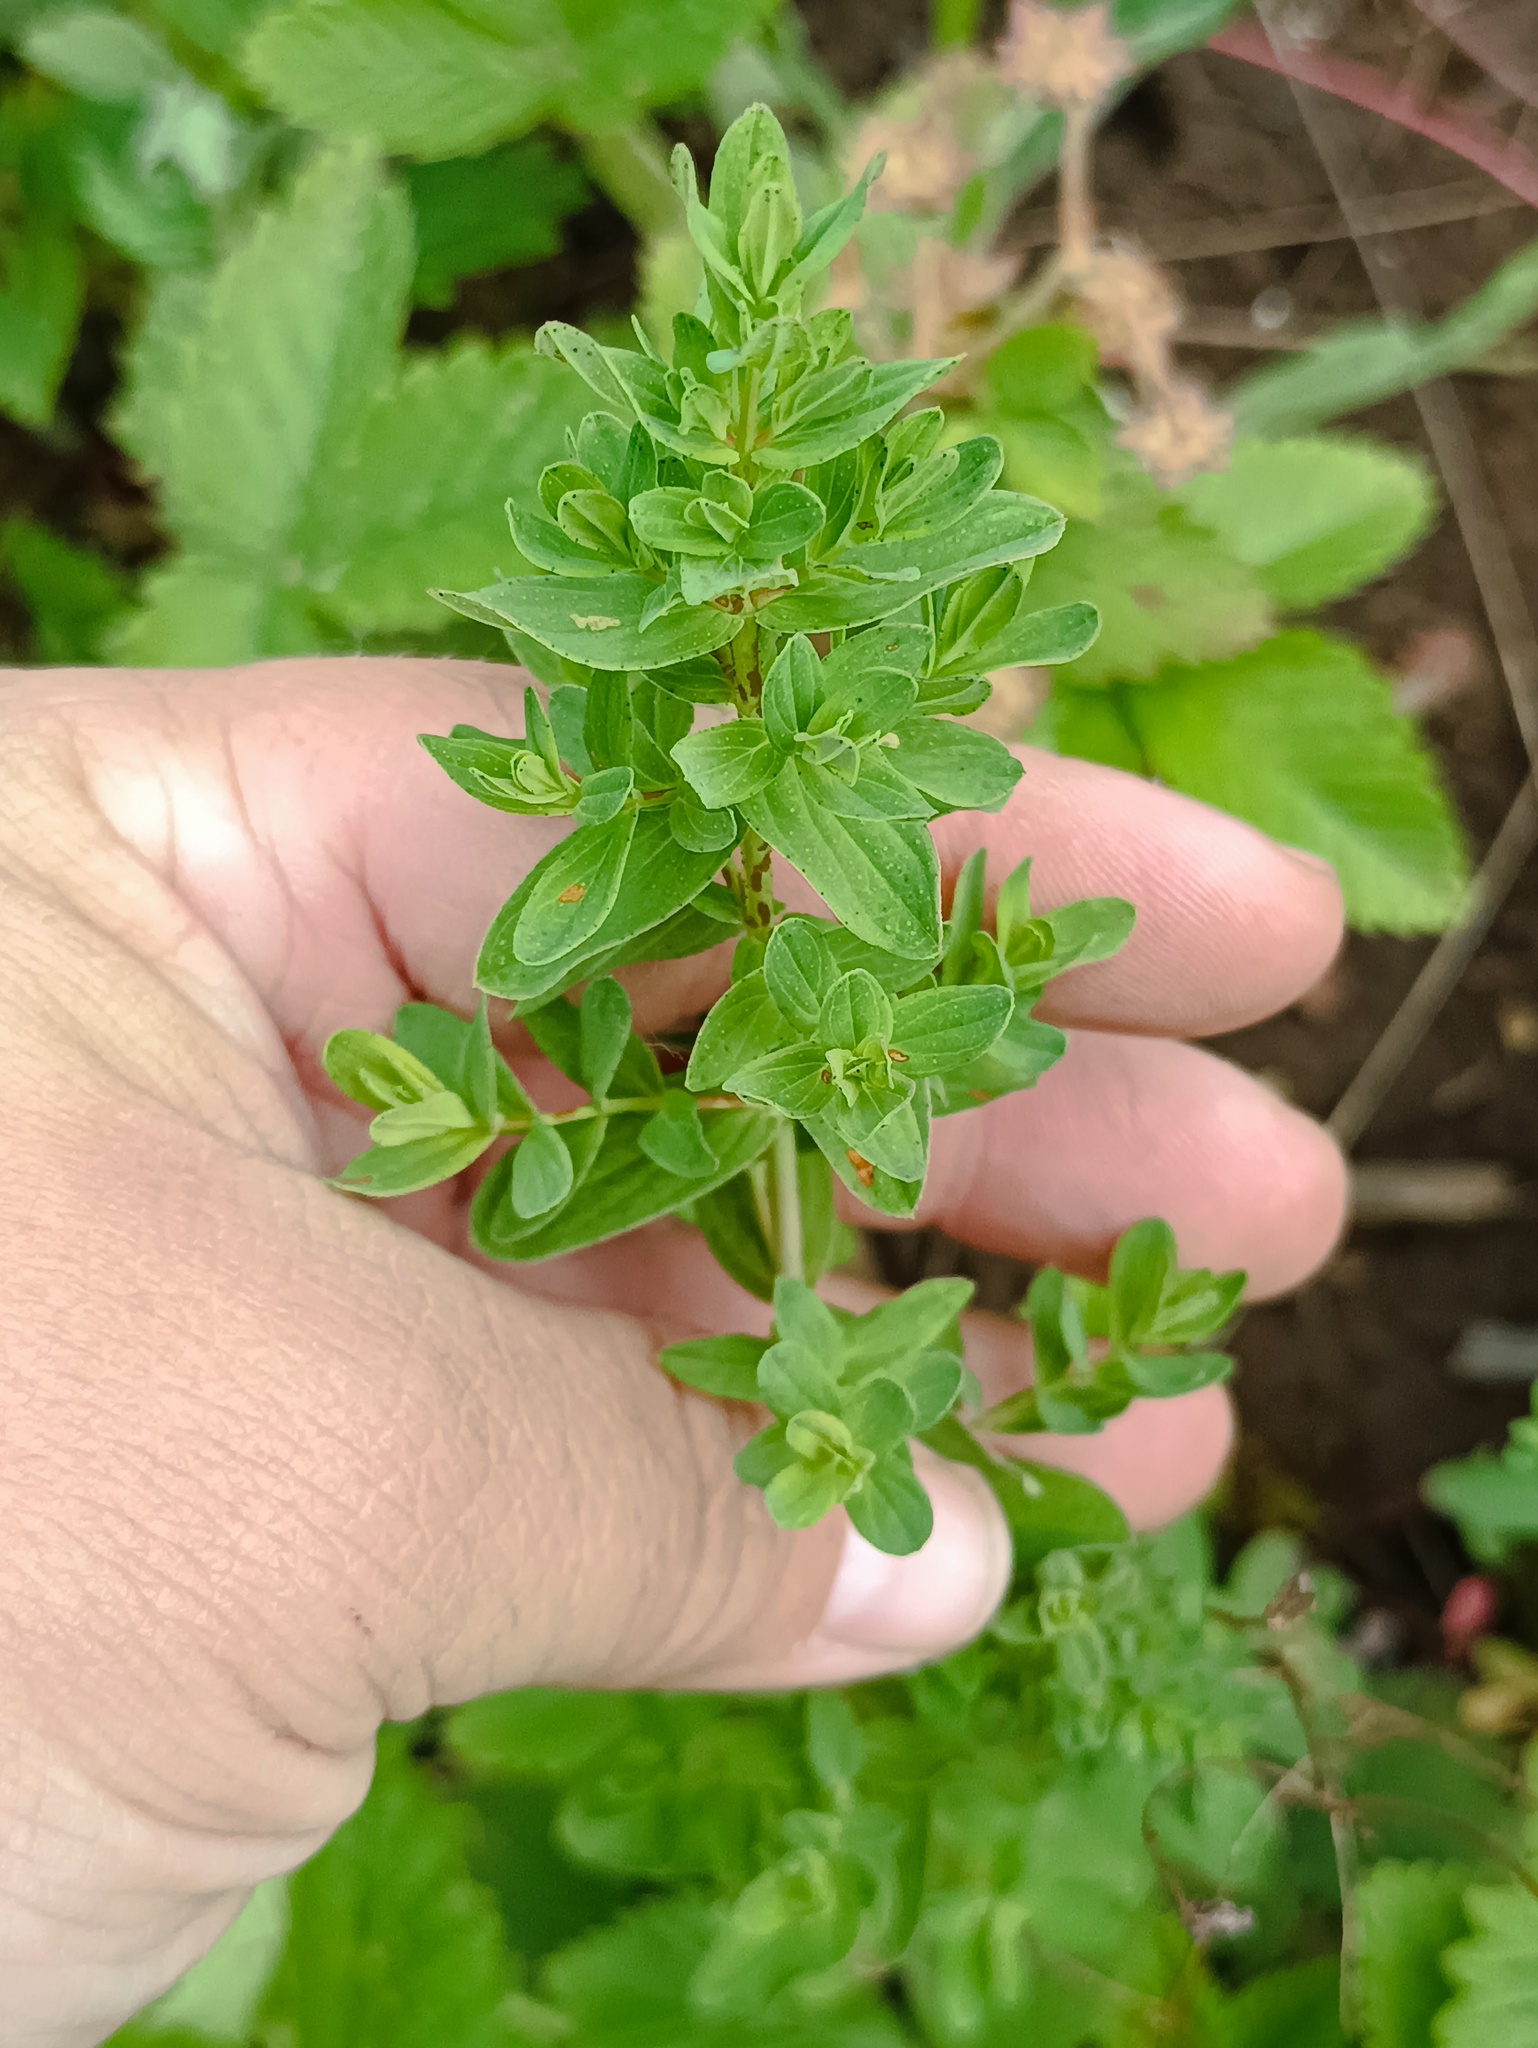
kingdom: Plantae
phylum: Tracheophyta
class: Magnoliopsida
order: Malpighiales
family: Hypericaceae
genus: Hypericum
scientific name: Hypericum perforatum
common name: Common st. johnswort
